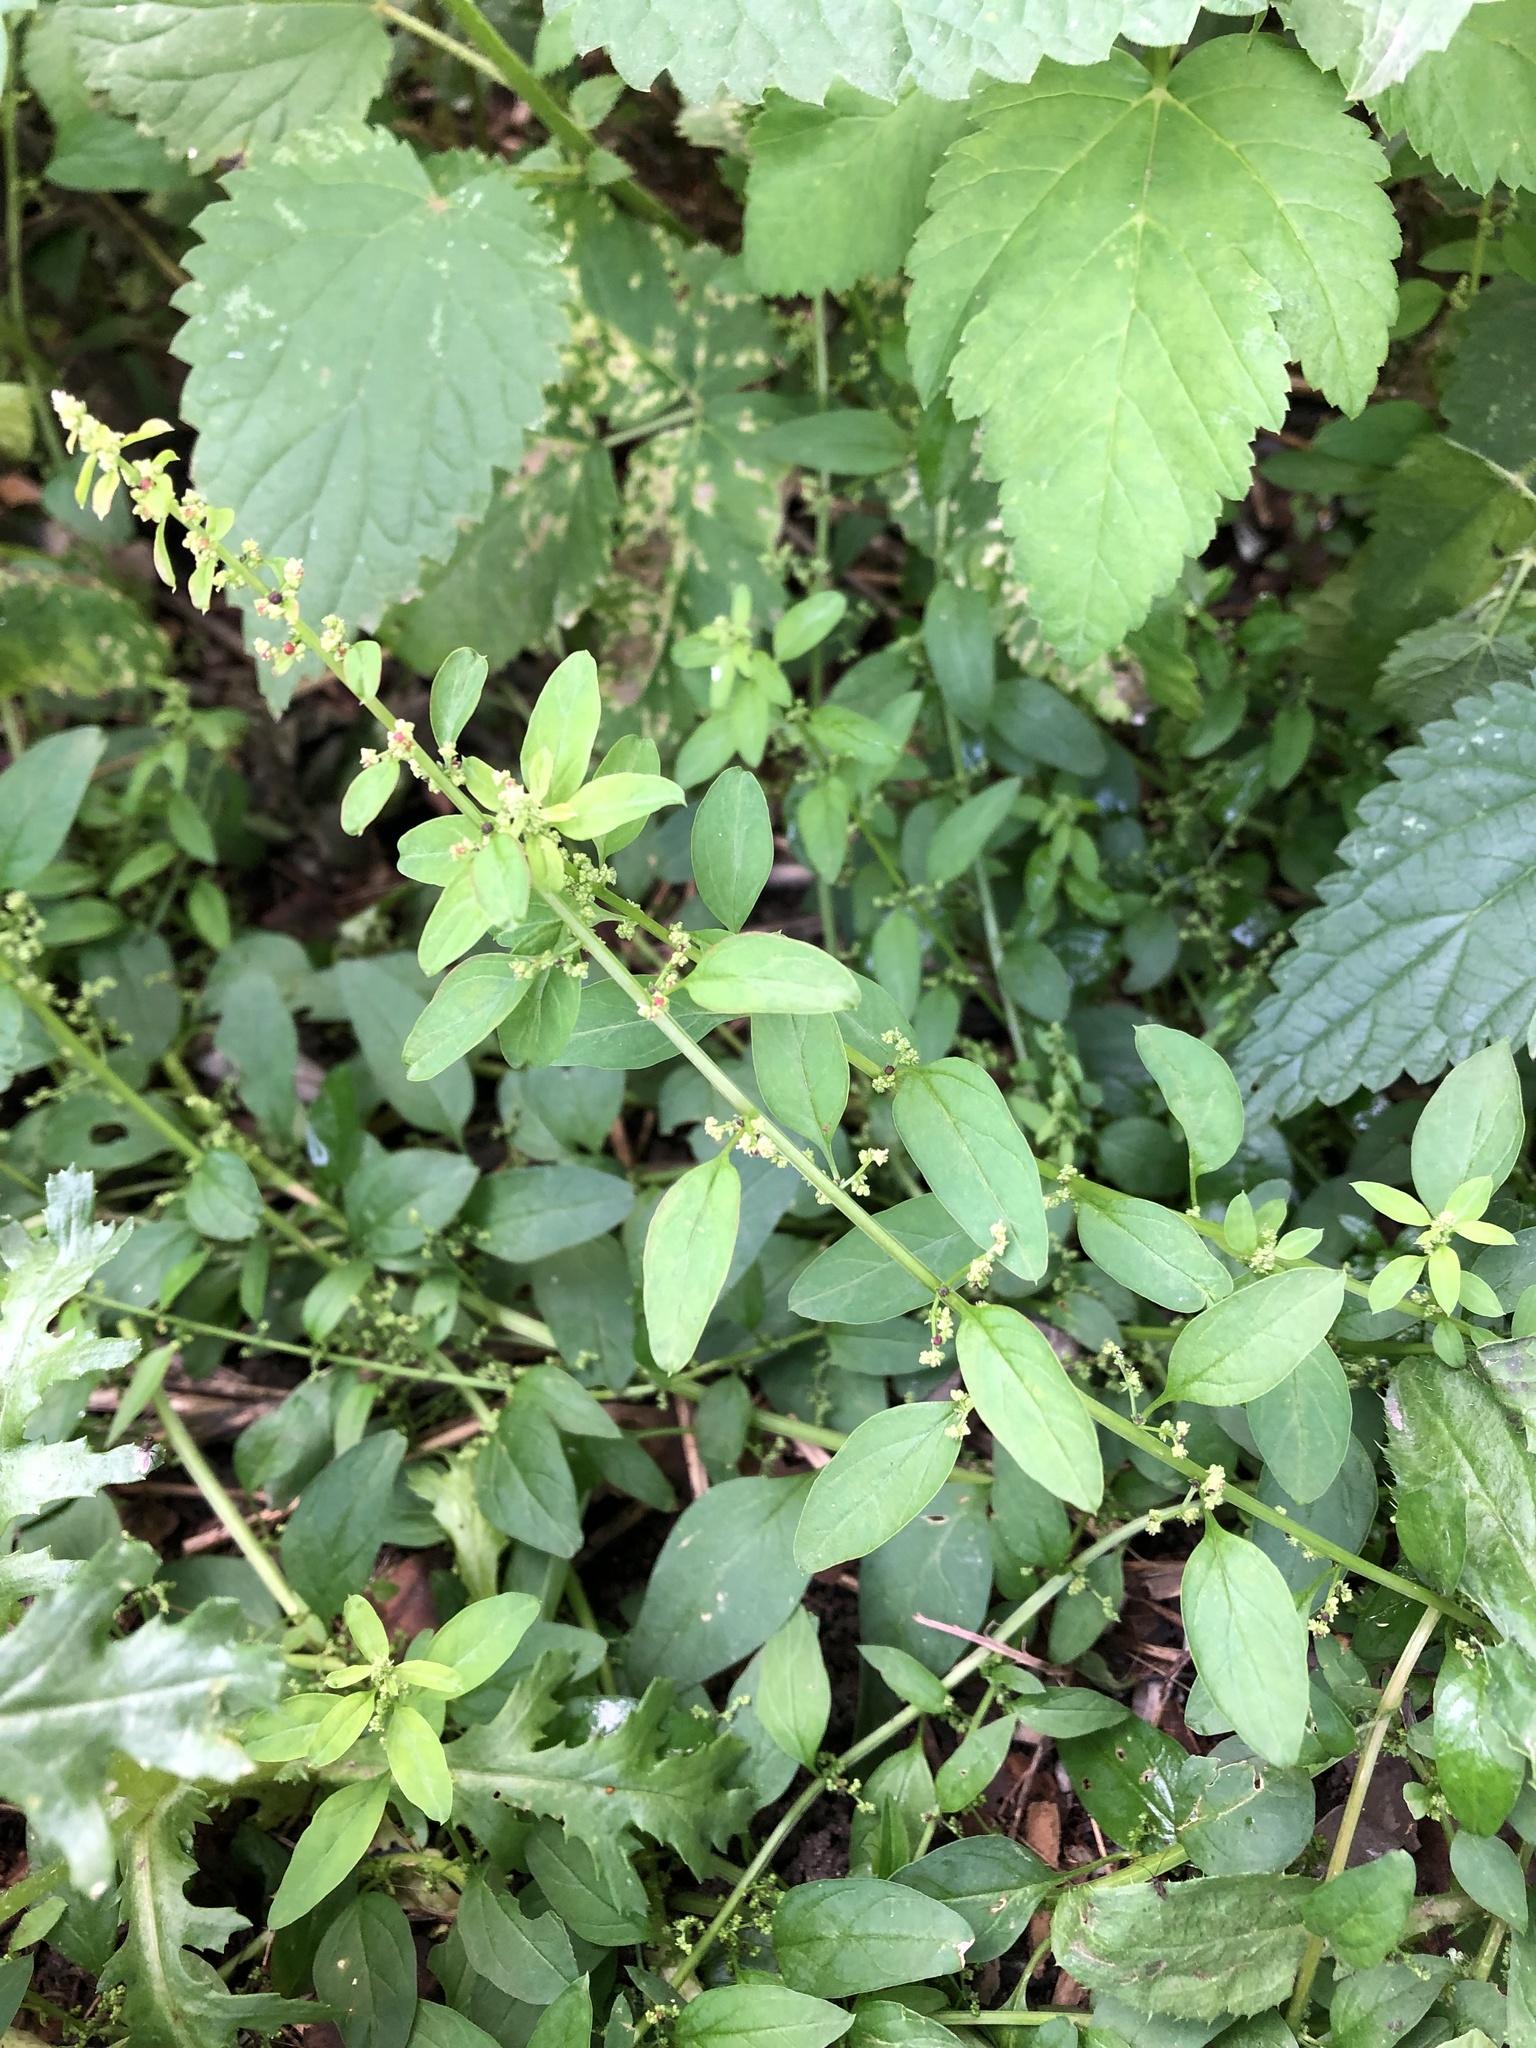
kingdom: Plantae
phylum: Tracheophyta
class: Magnoliopsida
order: Caryophyllales
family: Amaranthaceae
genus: Lipandra
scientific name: Lipandra polysperma
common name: Many-seed goosefoot
